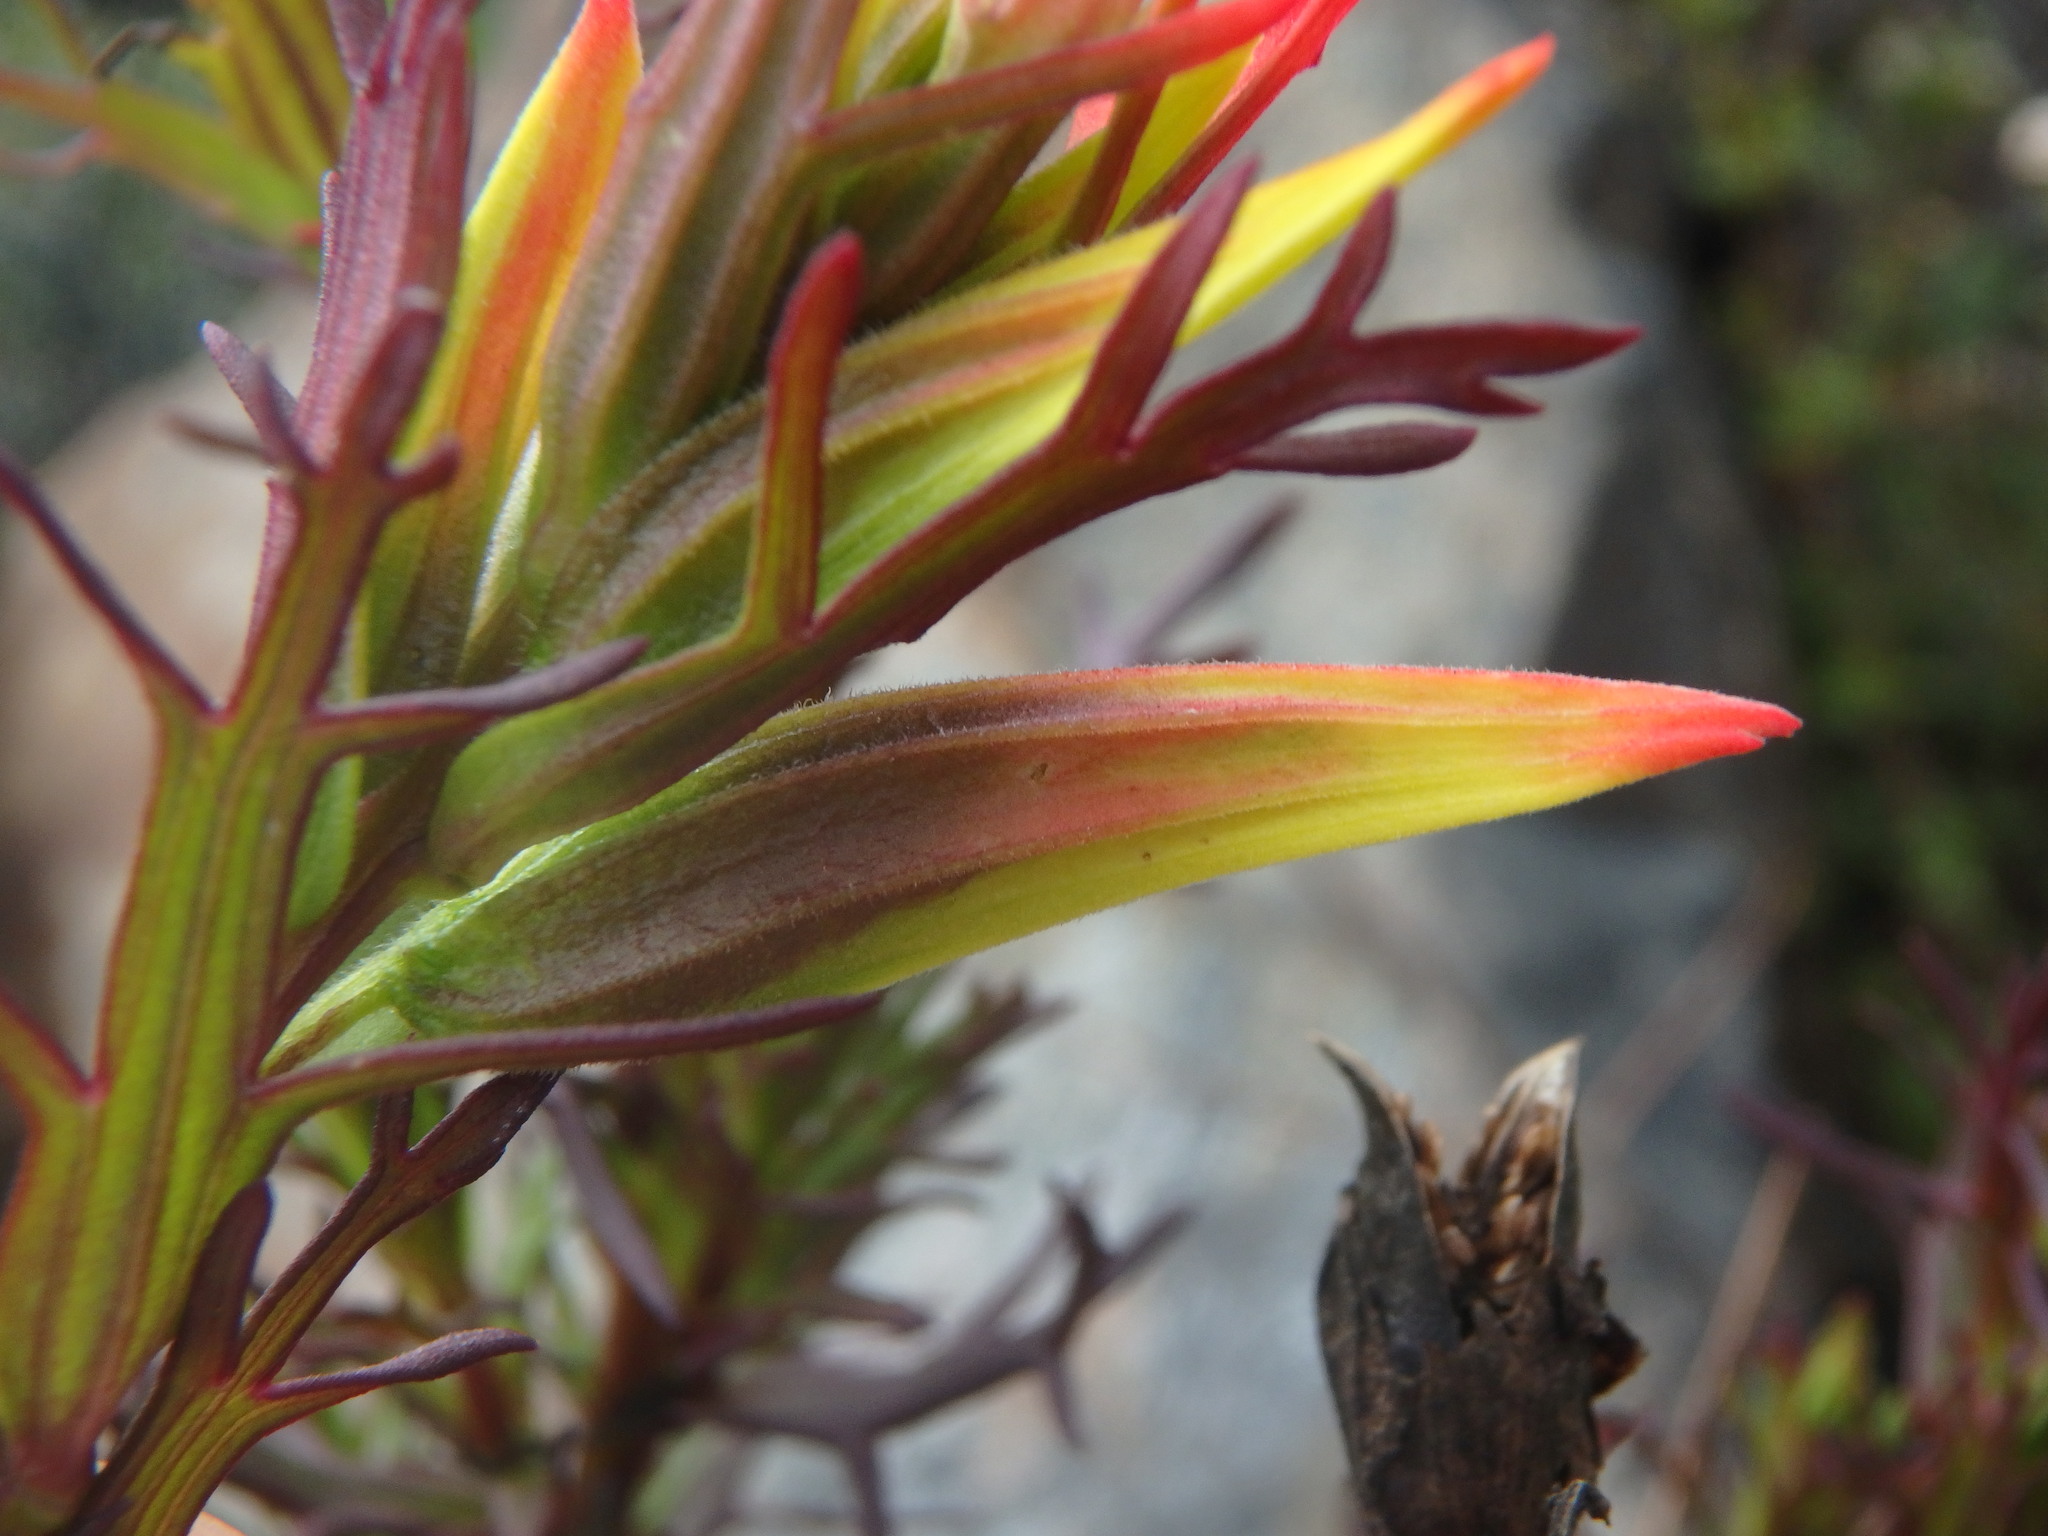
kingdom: Plantae
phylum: Tracheophyta
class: Magnoliopsida
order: Lamiales
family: Orobanchaceae
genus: Castilleja
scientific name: Castilleja fissifolia
